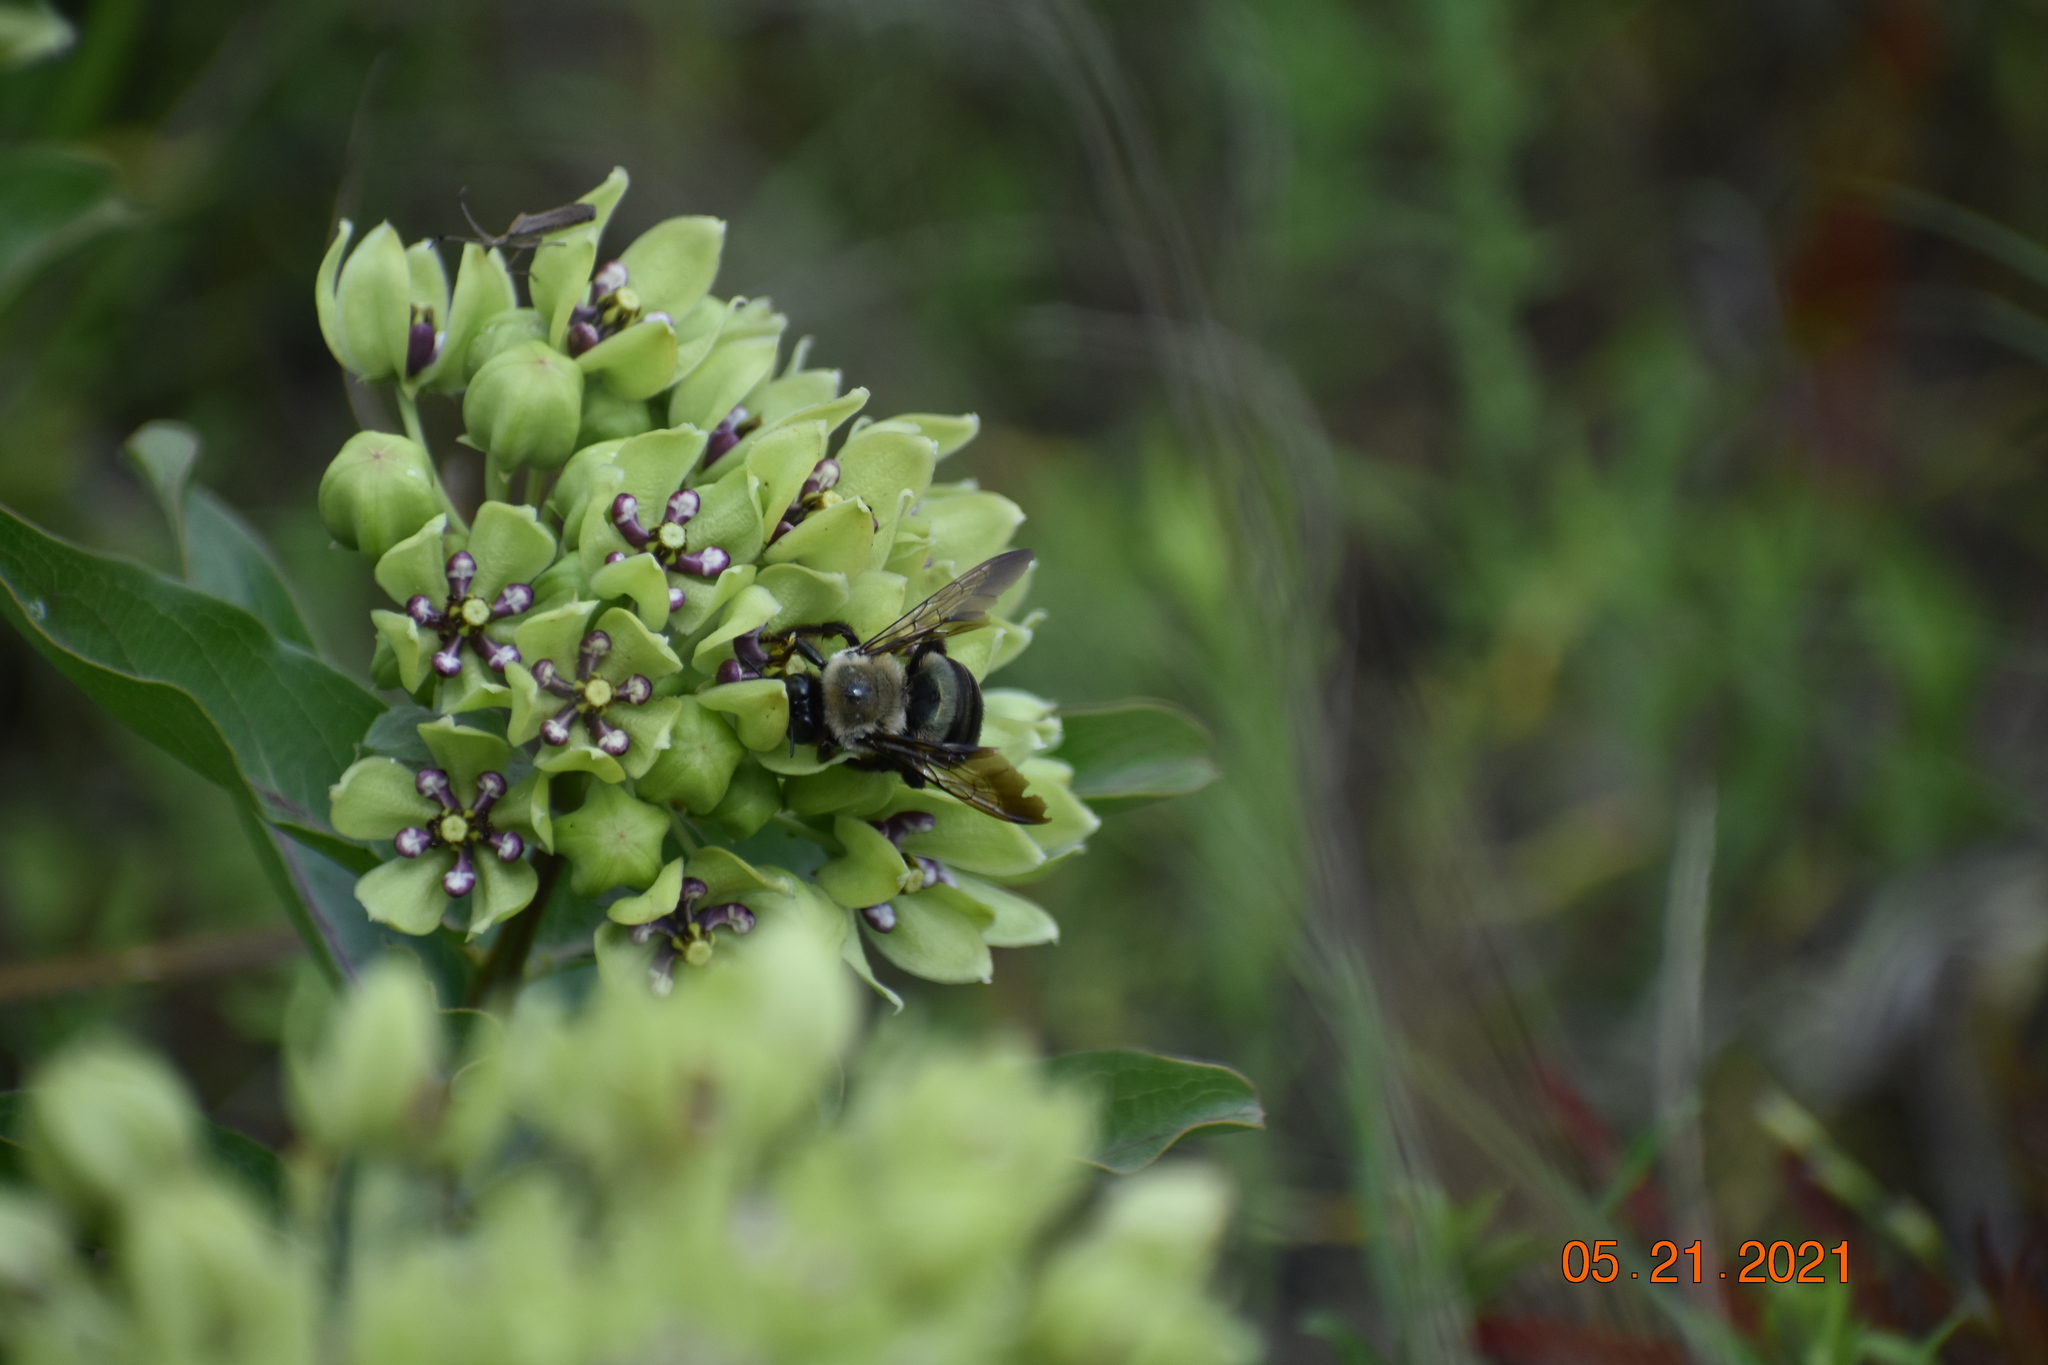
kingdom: Animalia
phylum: Arthropoda
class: Insecta
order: Hymenoptera
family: Apidae
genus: Xylocopa
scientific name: Xylocopa virginica
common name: Carpenter bee
